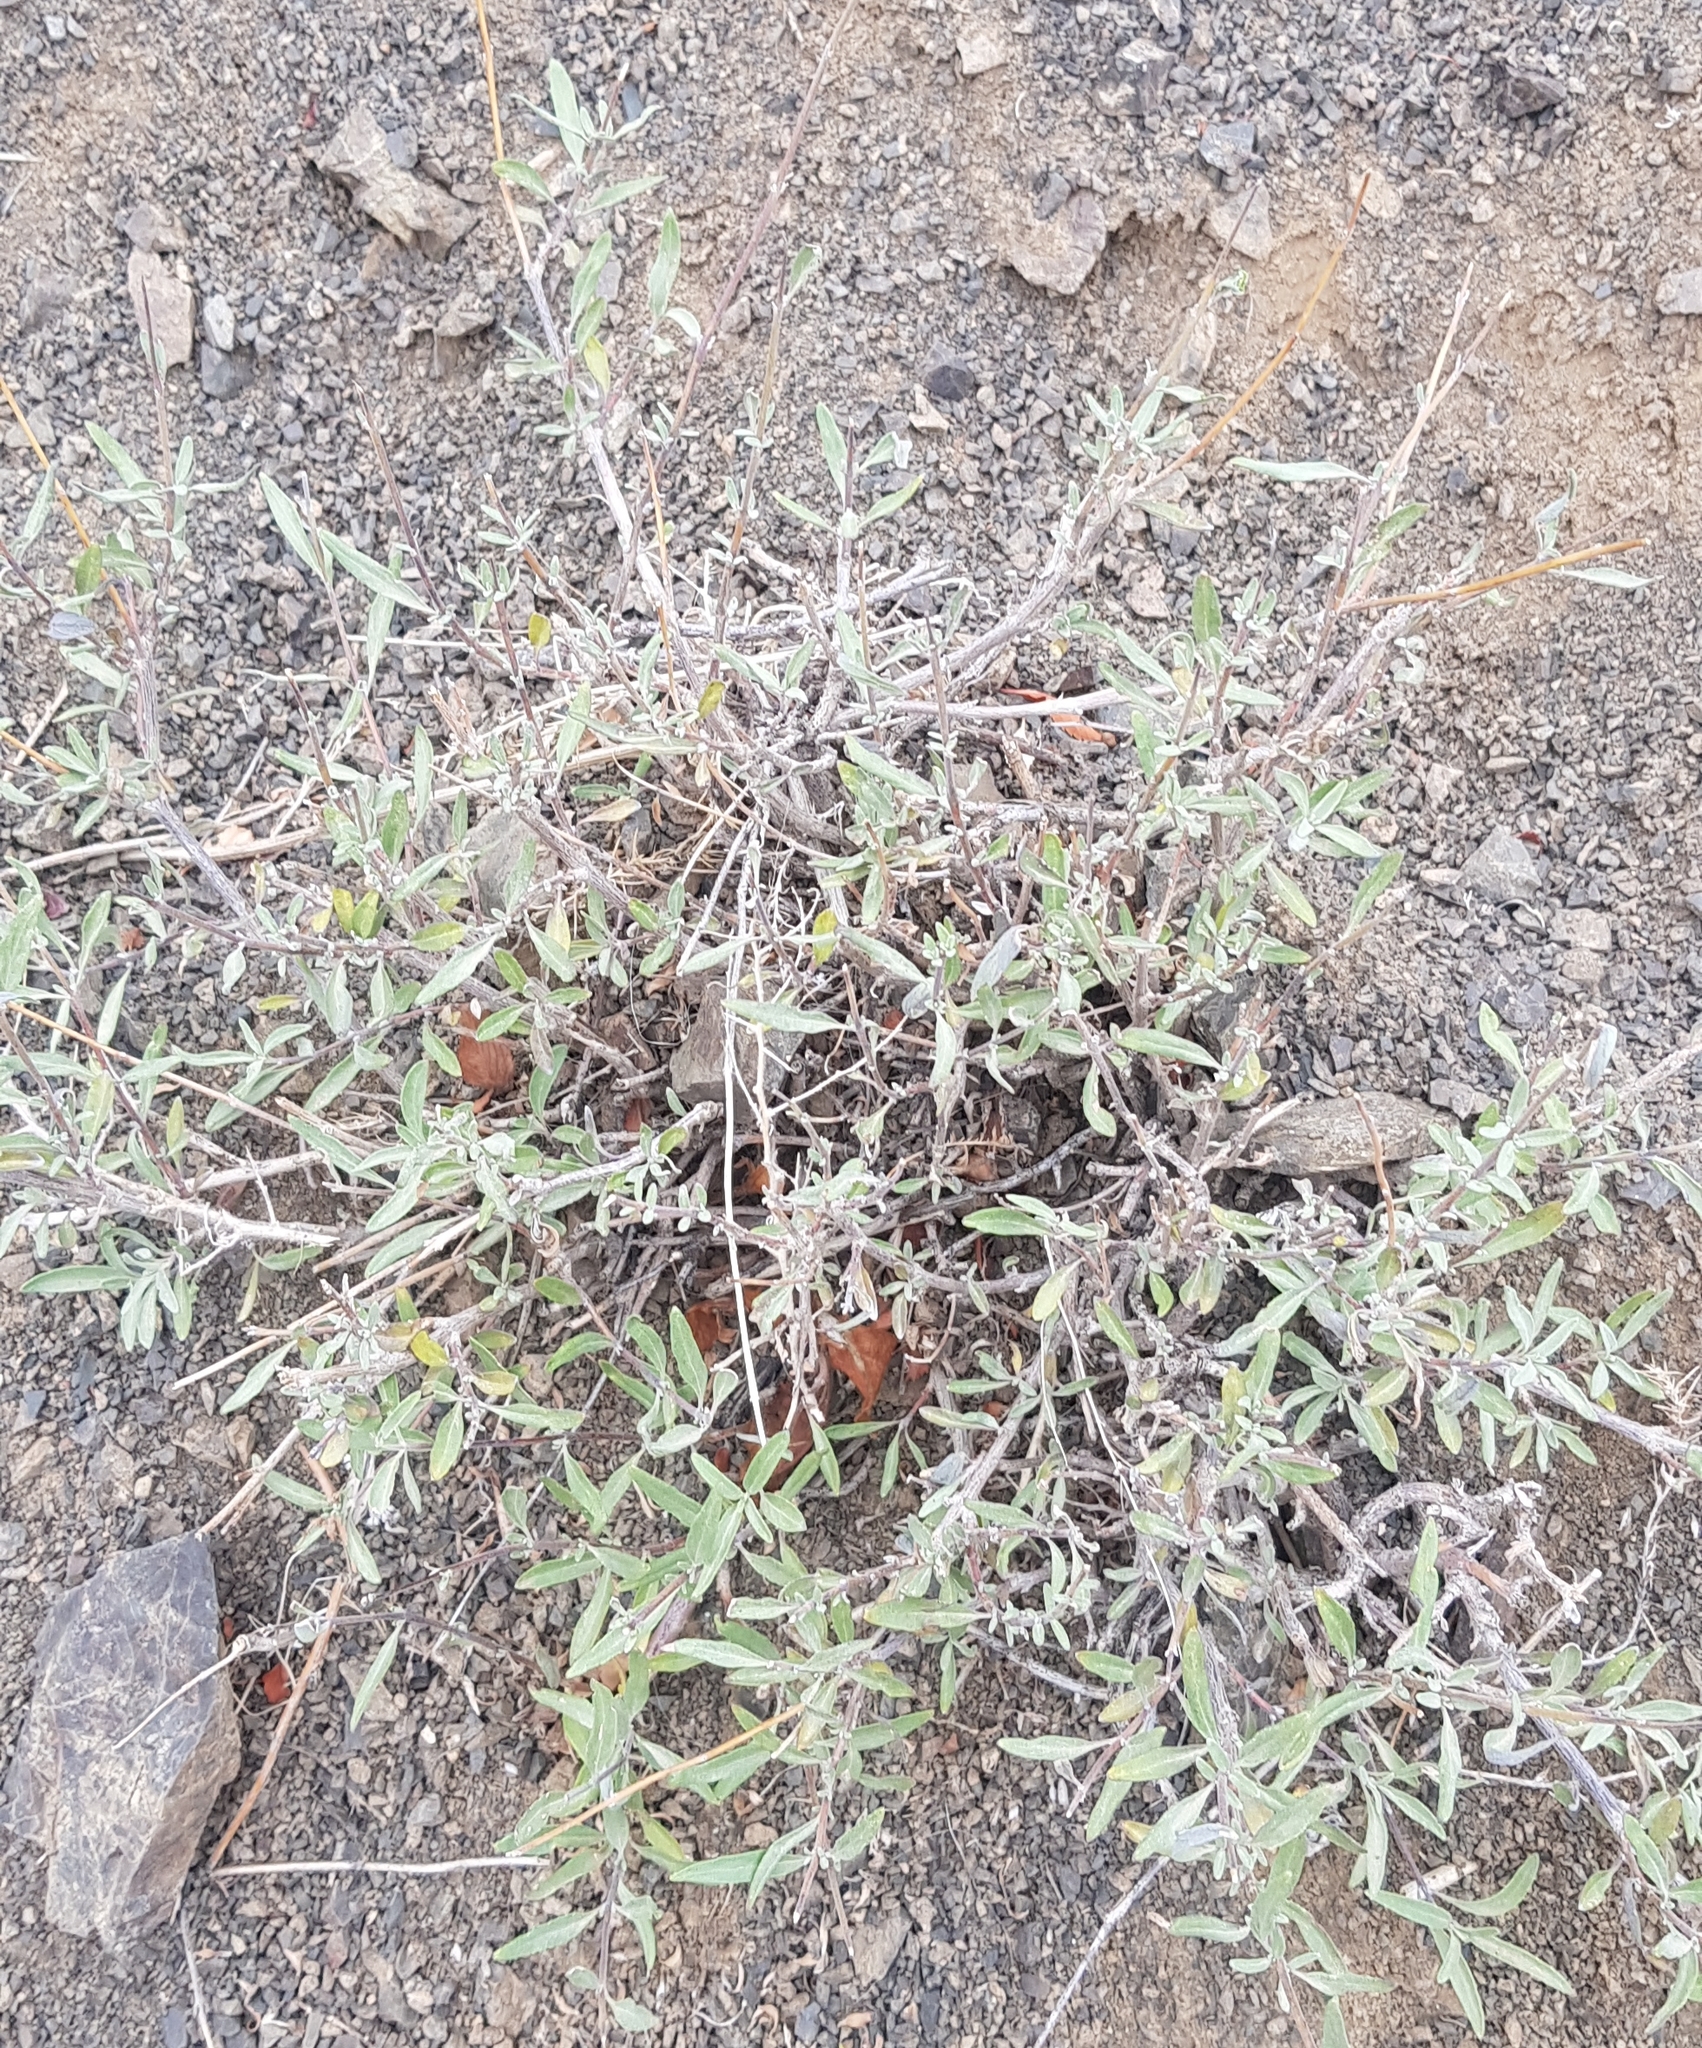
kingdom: Plantae
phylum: Tracheophyta
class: Magnoliopsida
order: Lamiales
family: Lamiaceae
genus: Caryopteris
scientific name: Caryopteris mongholica
